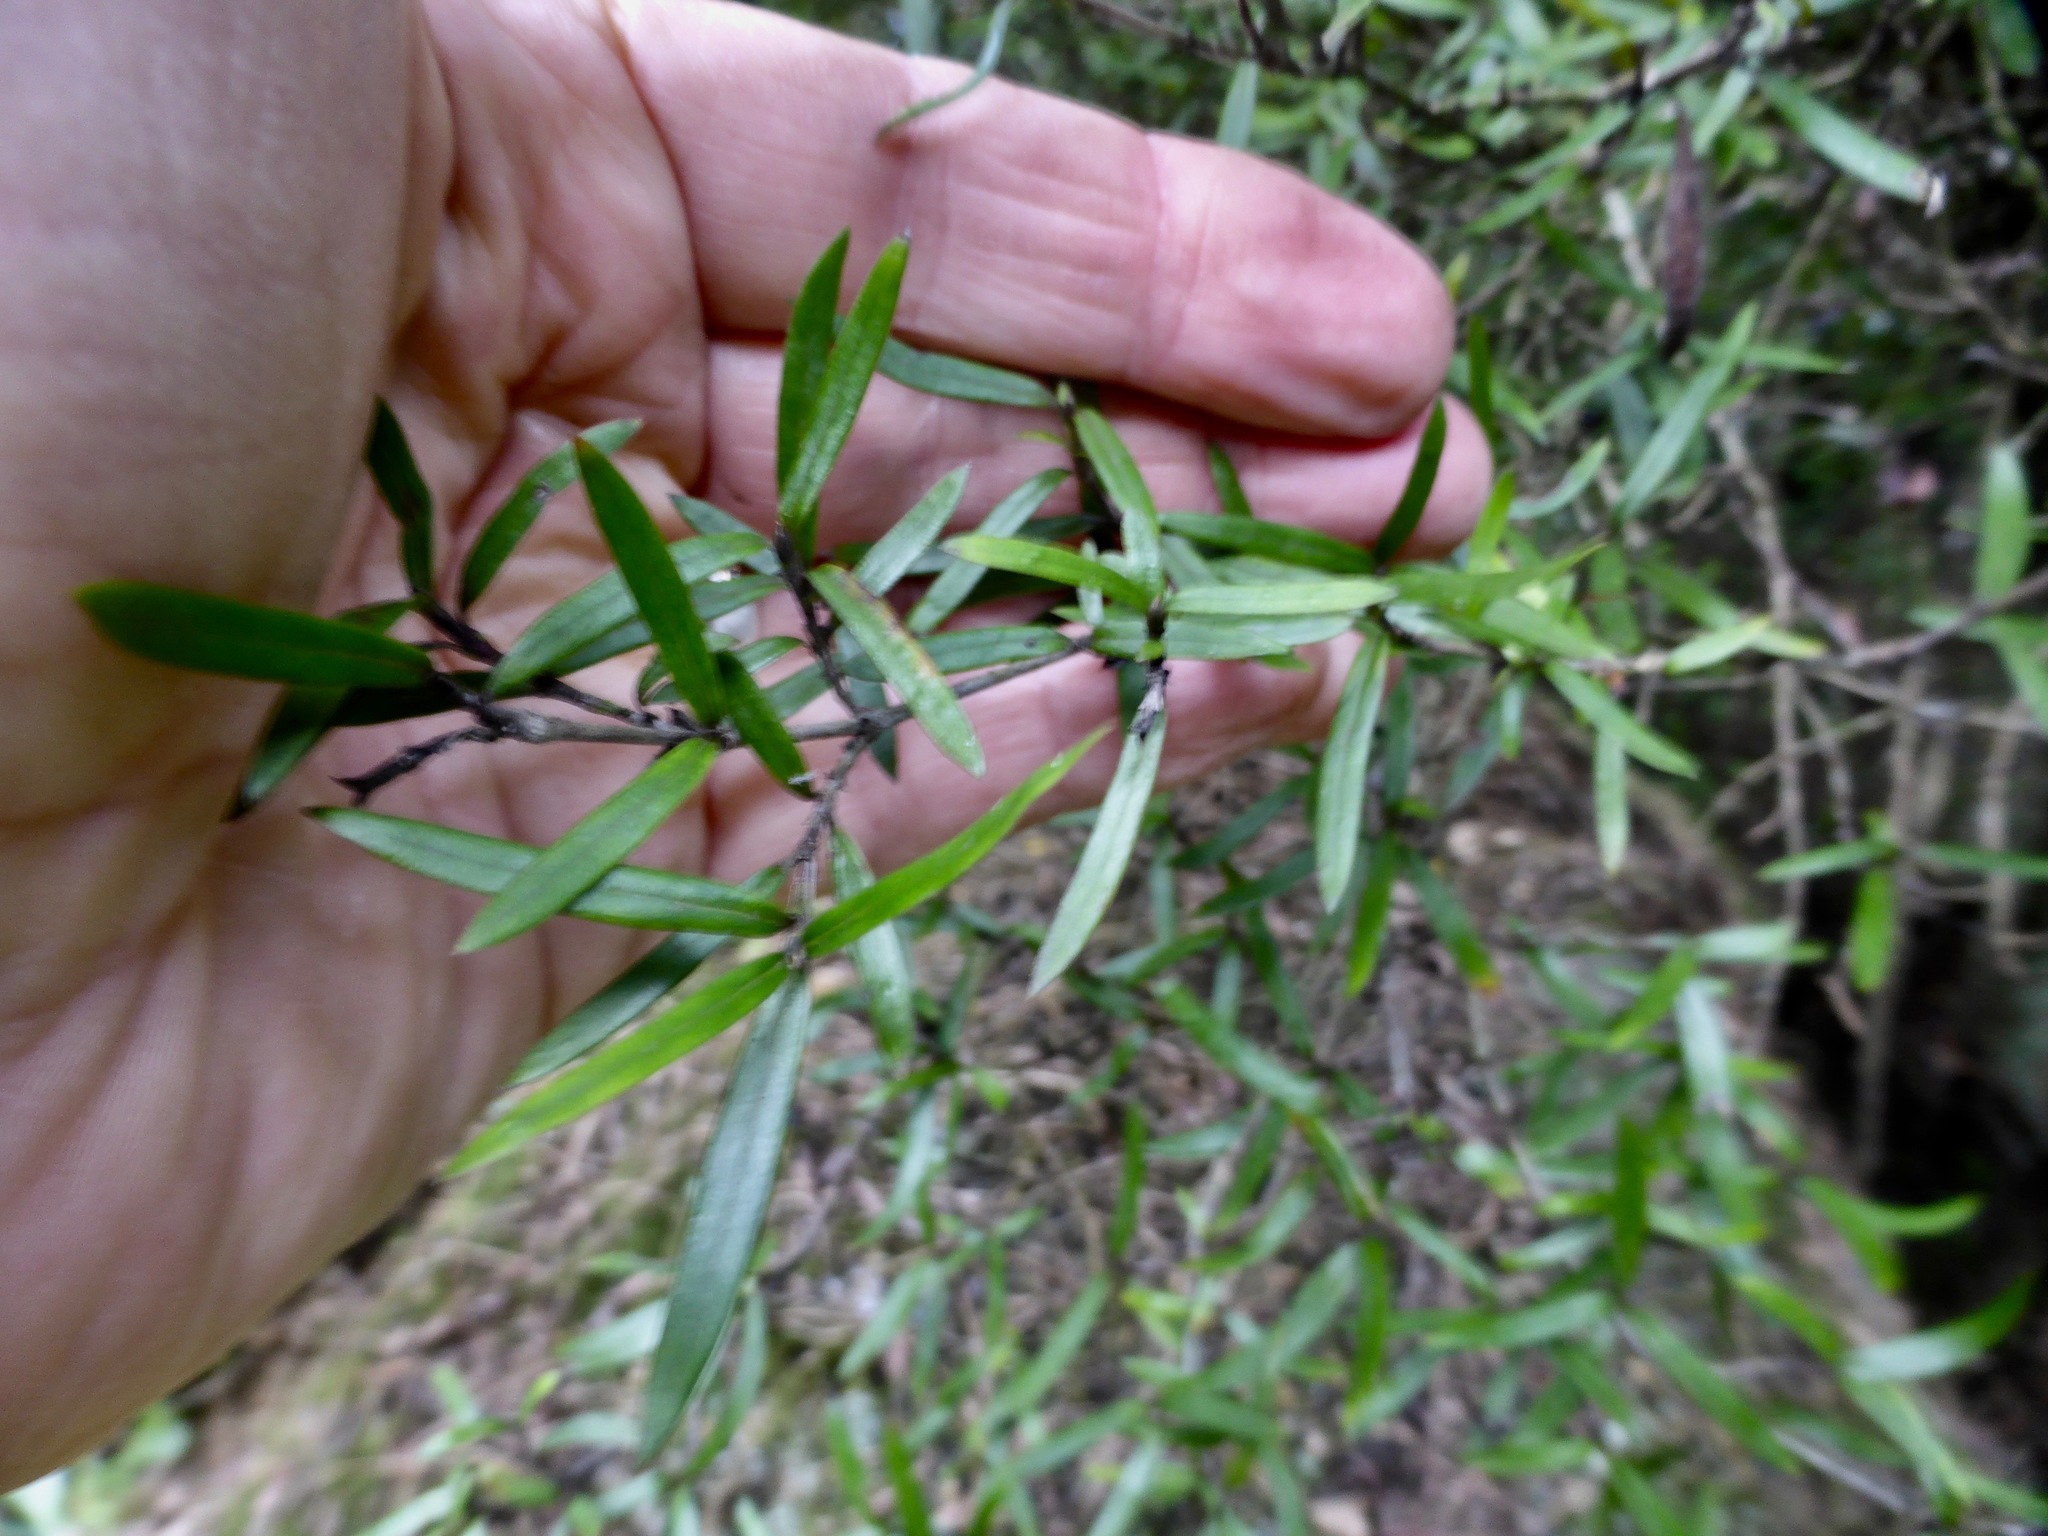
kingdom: Plantae
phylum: Tracheophyta
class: Magnoliopsida
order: Gentianales
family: Rubiaceae
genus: Coprosma
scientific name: Coprosma linariifolia
